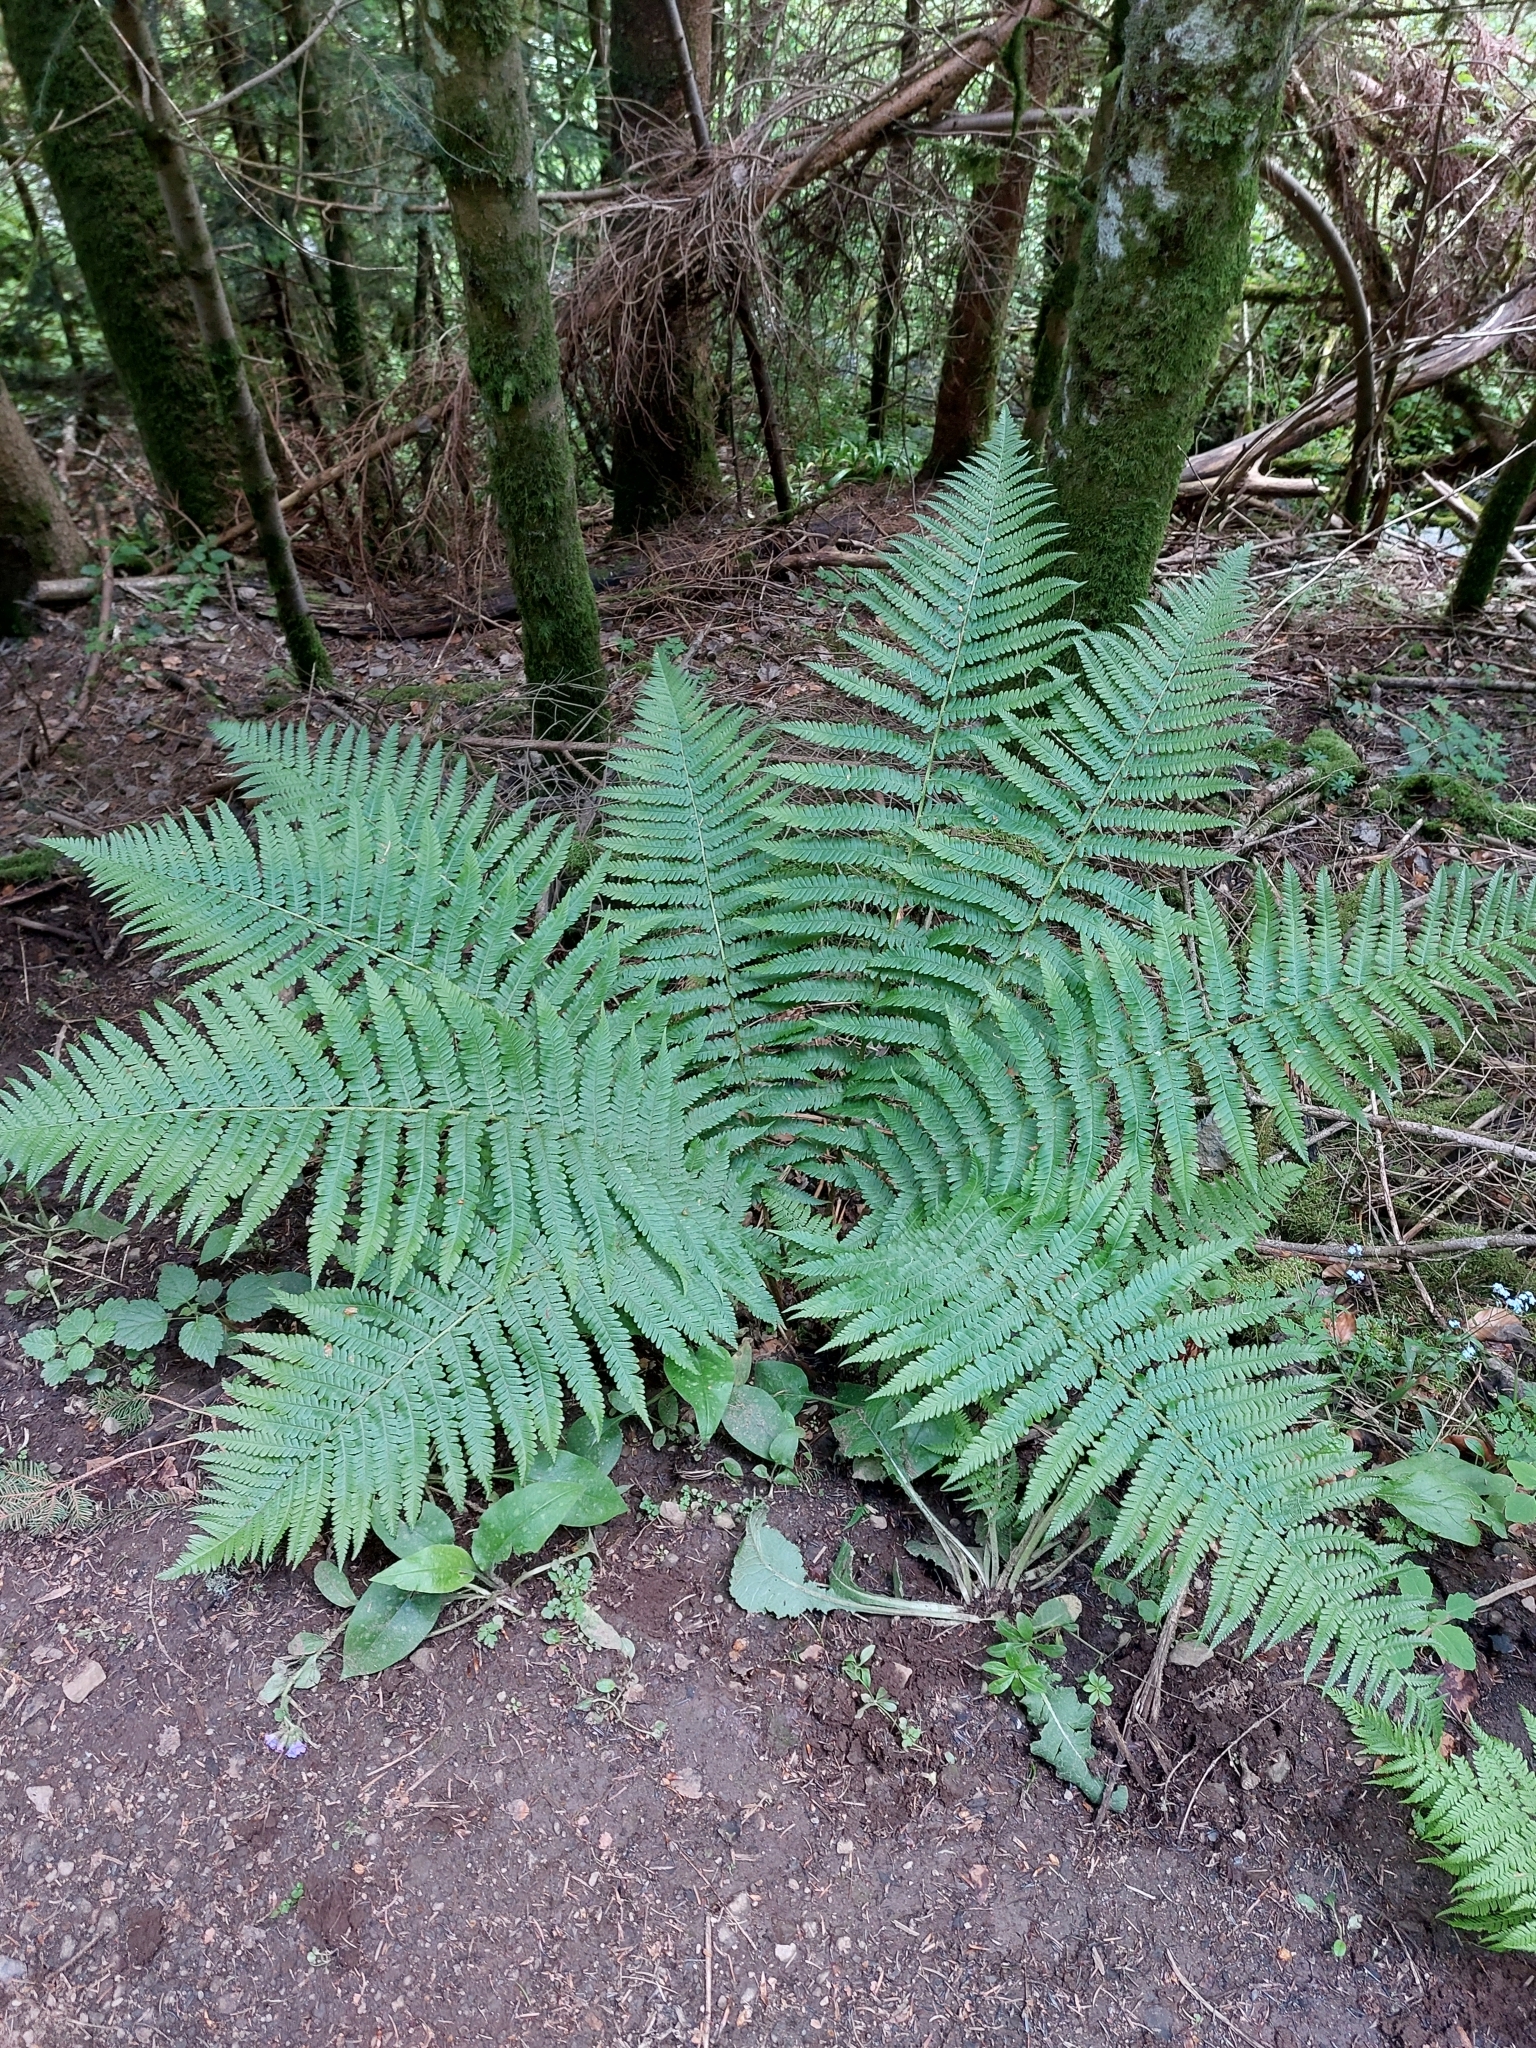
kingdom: Plantae
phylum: Tracheophyta
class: Polypodiopsida
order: Polypodiales
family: Dryopteridaceae
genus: Dryopteris
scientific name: Dryopteris filix-mas
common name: Male fern
